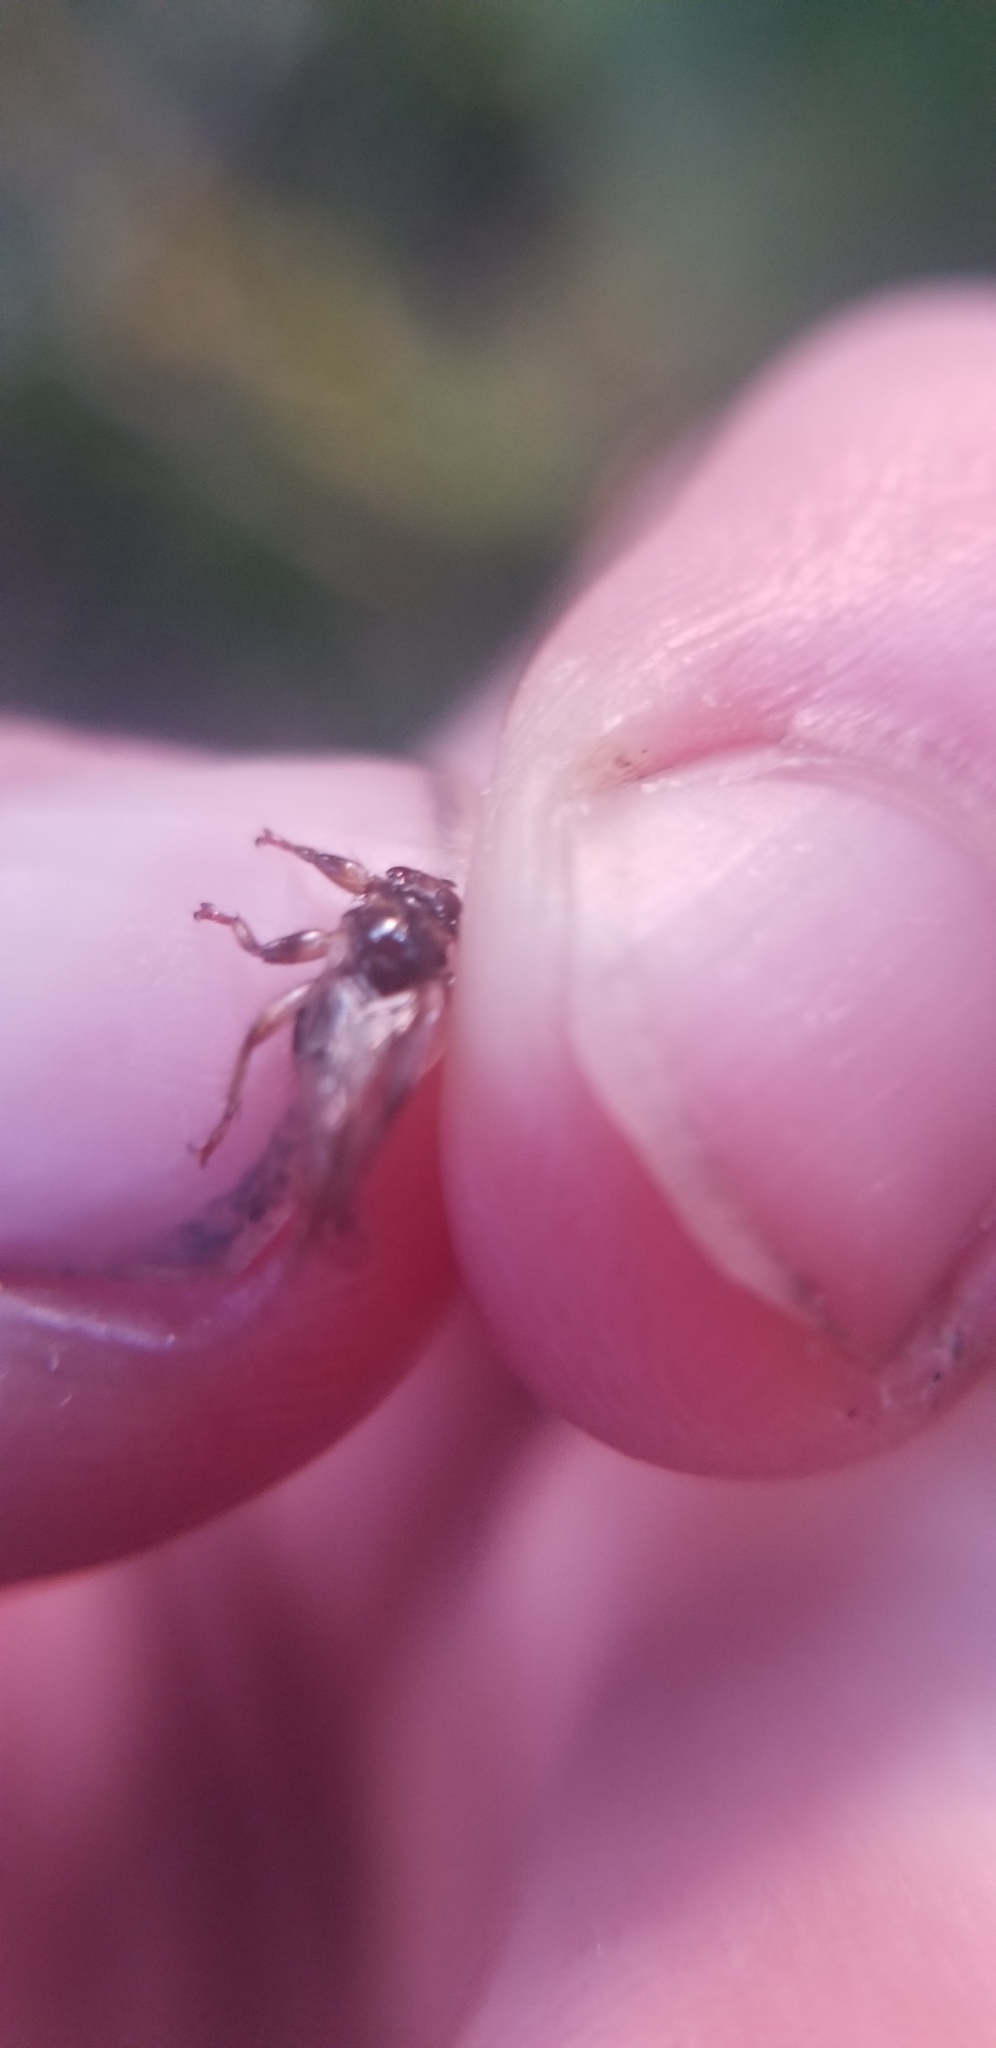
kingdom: Animalia
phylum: Arthropoda
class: Insecta
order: Diptera
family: Hippoboscidae
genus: Lipoptena
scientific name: Lipoptena cervi
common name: Deer ked
